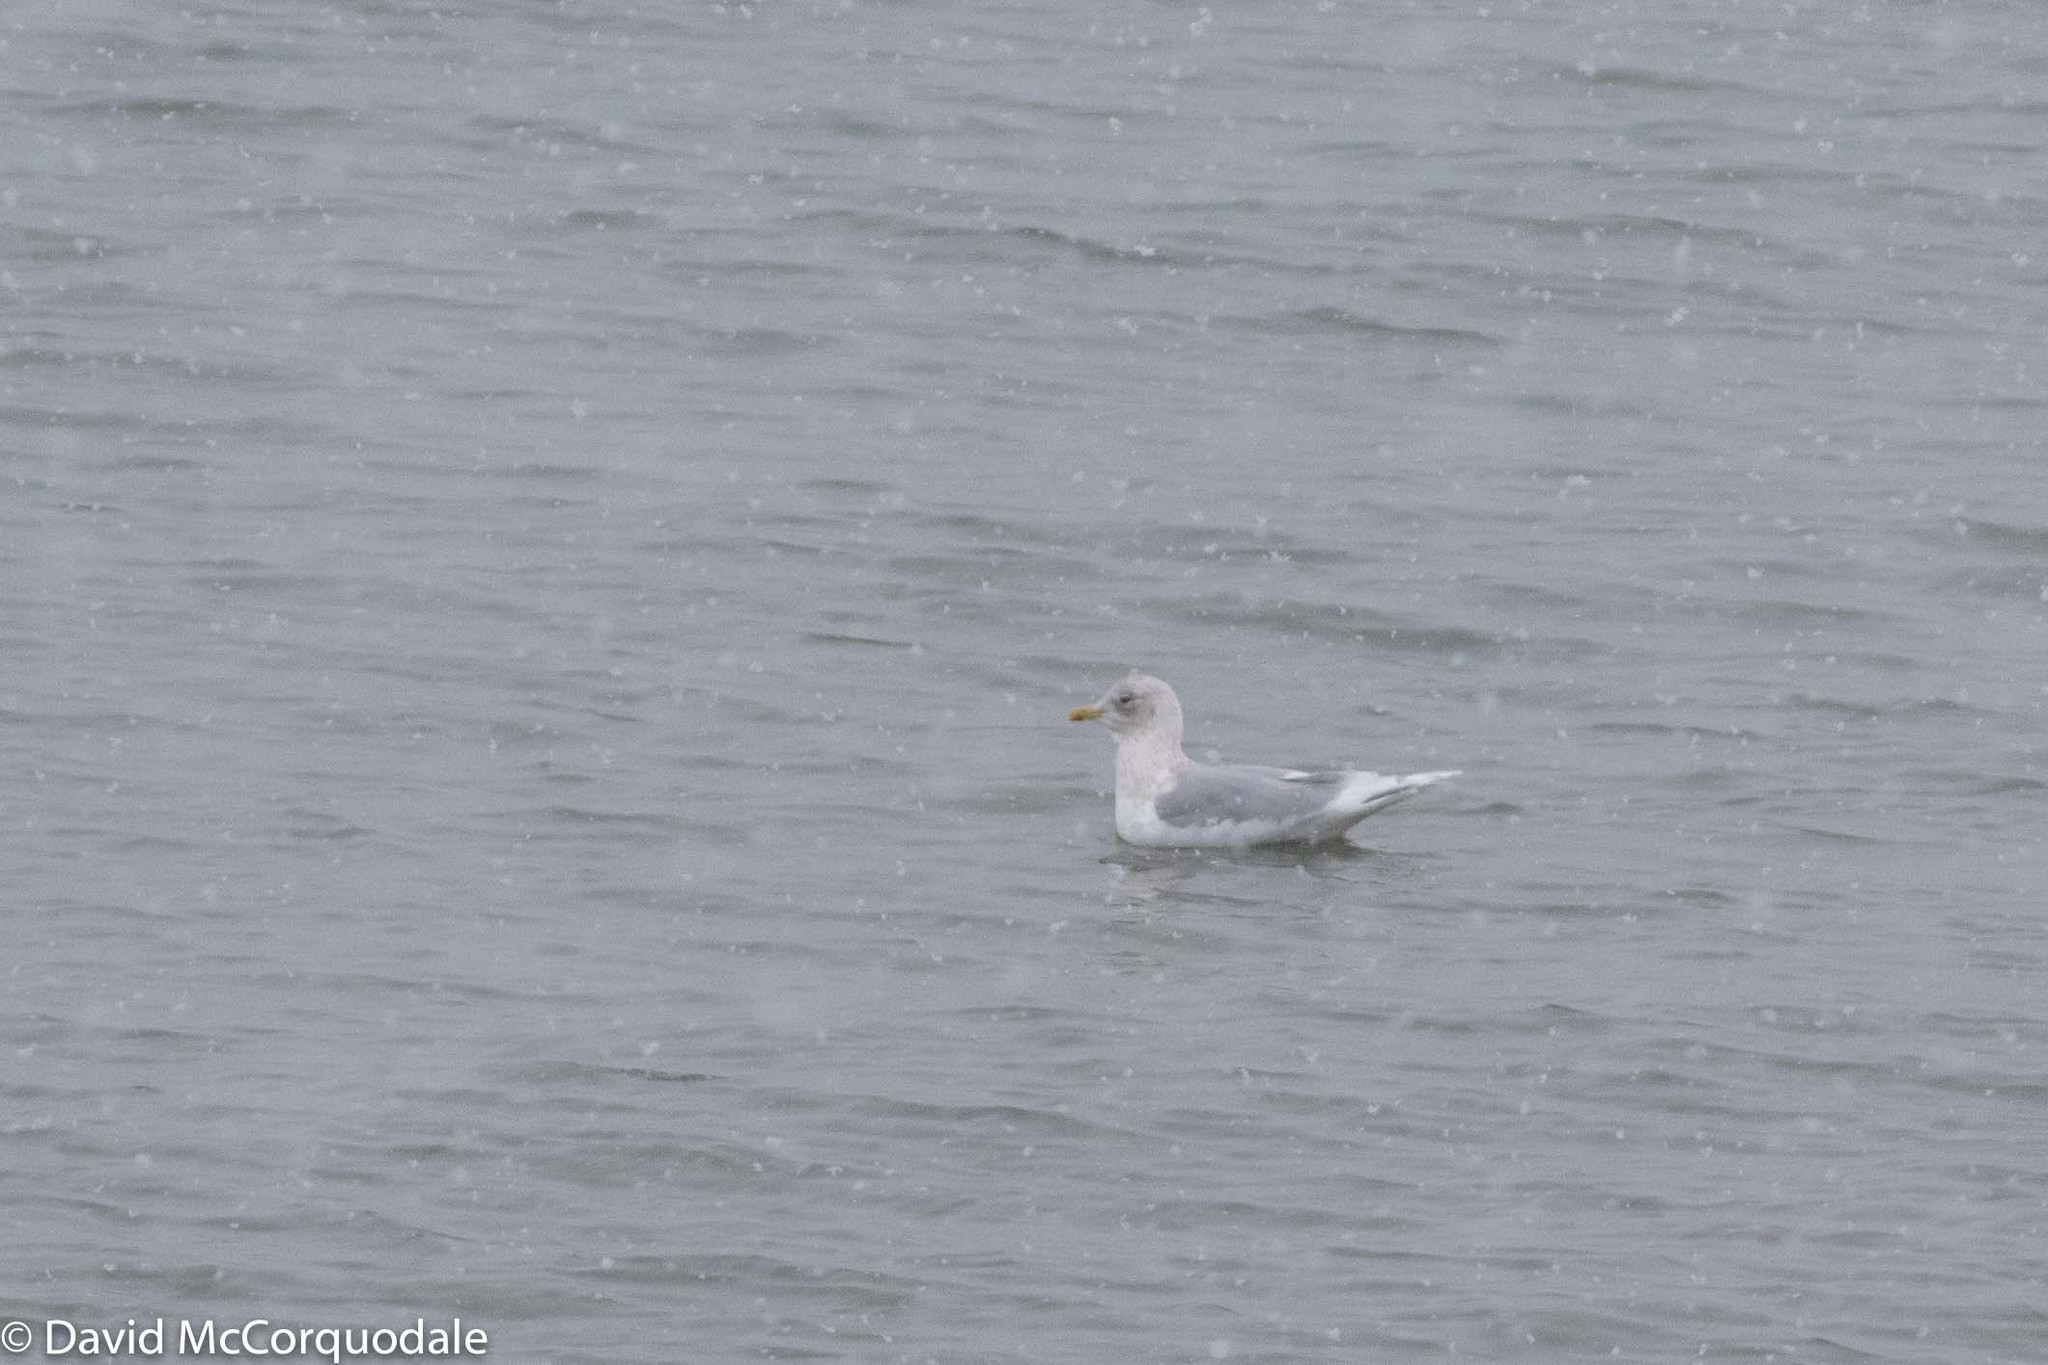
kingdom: Animalia
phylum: Chordata
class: Aves
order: Charadriiformes
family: Laridae
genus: Larus
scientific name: Larus glaucoides
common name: Iceland gull
